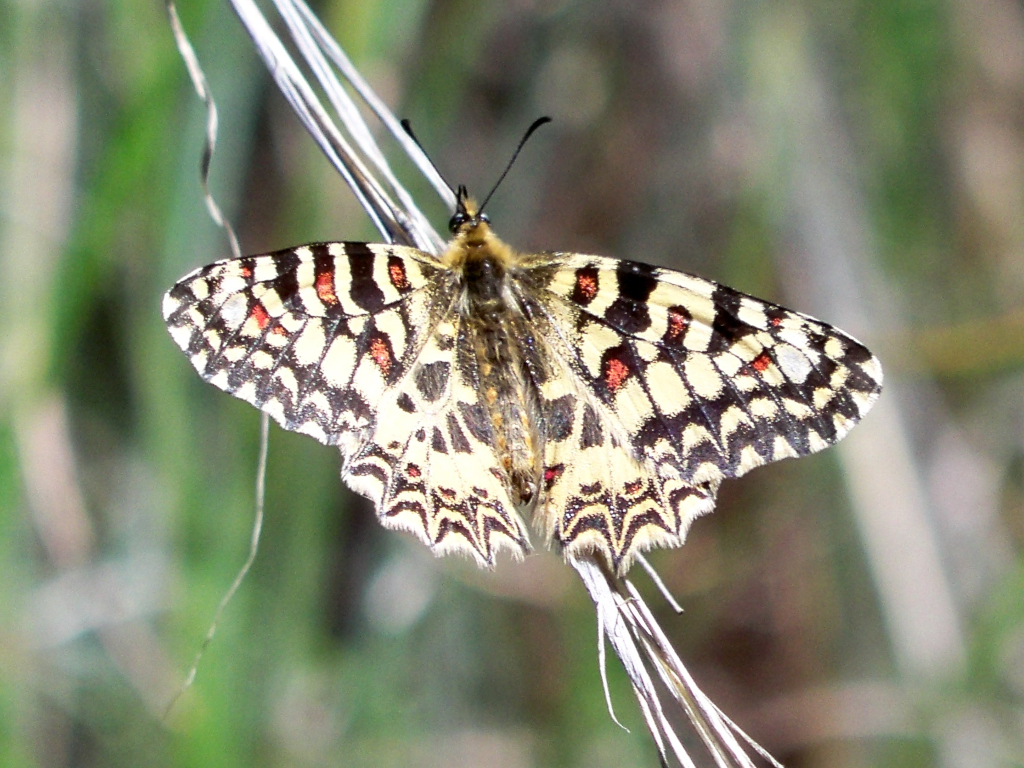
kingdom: Animalia
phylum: Arthropoda
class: Insecta
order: Lepidoptera
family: Papilionidae
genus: Zerynthia
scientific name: Zerynthia rumina
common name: Spanish festoon
